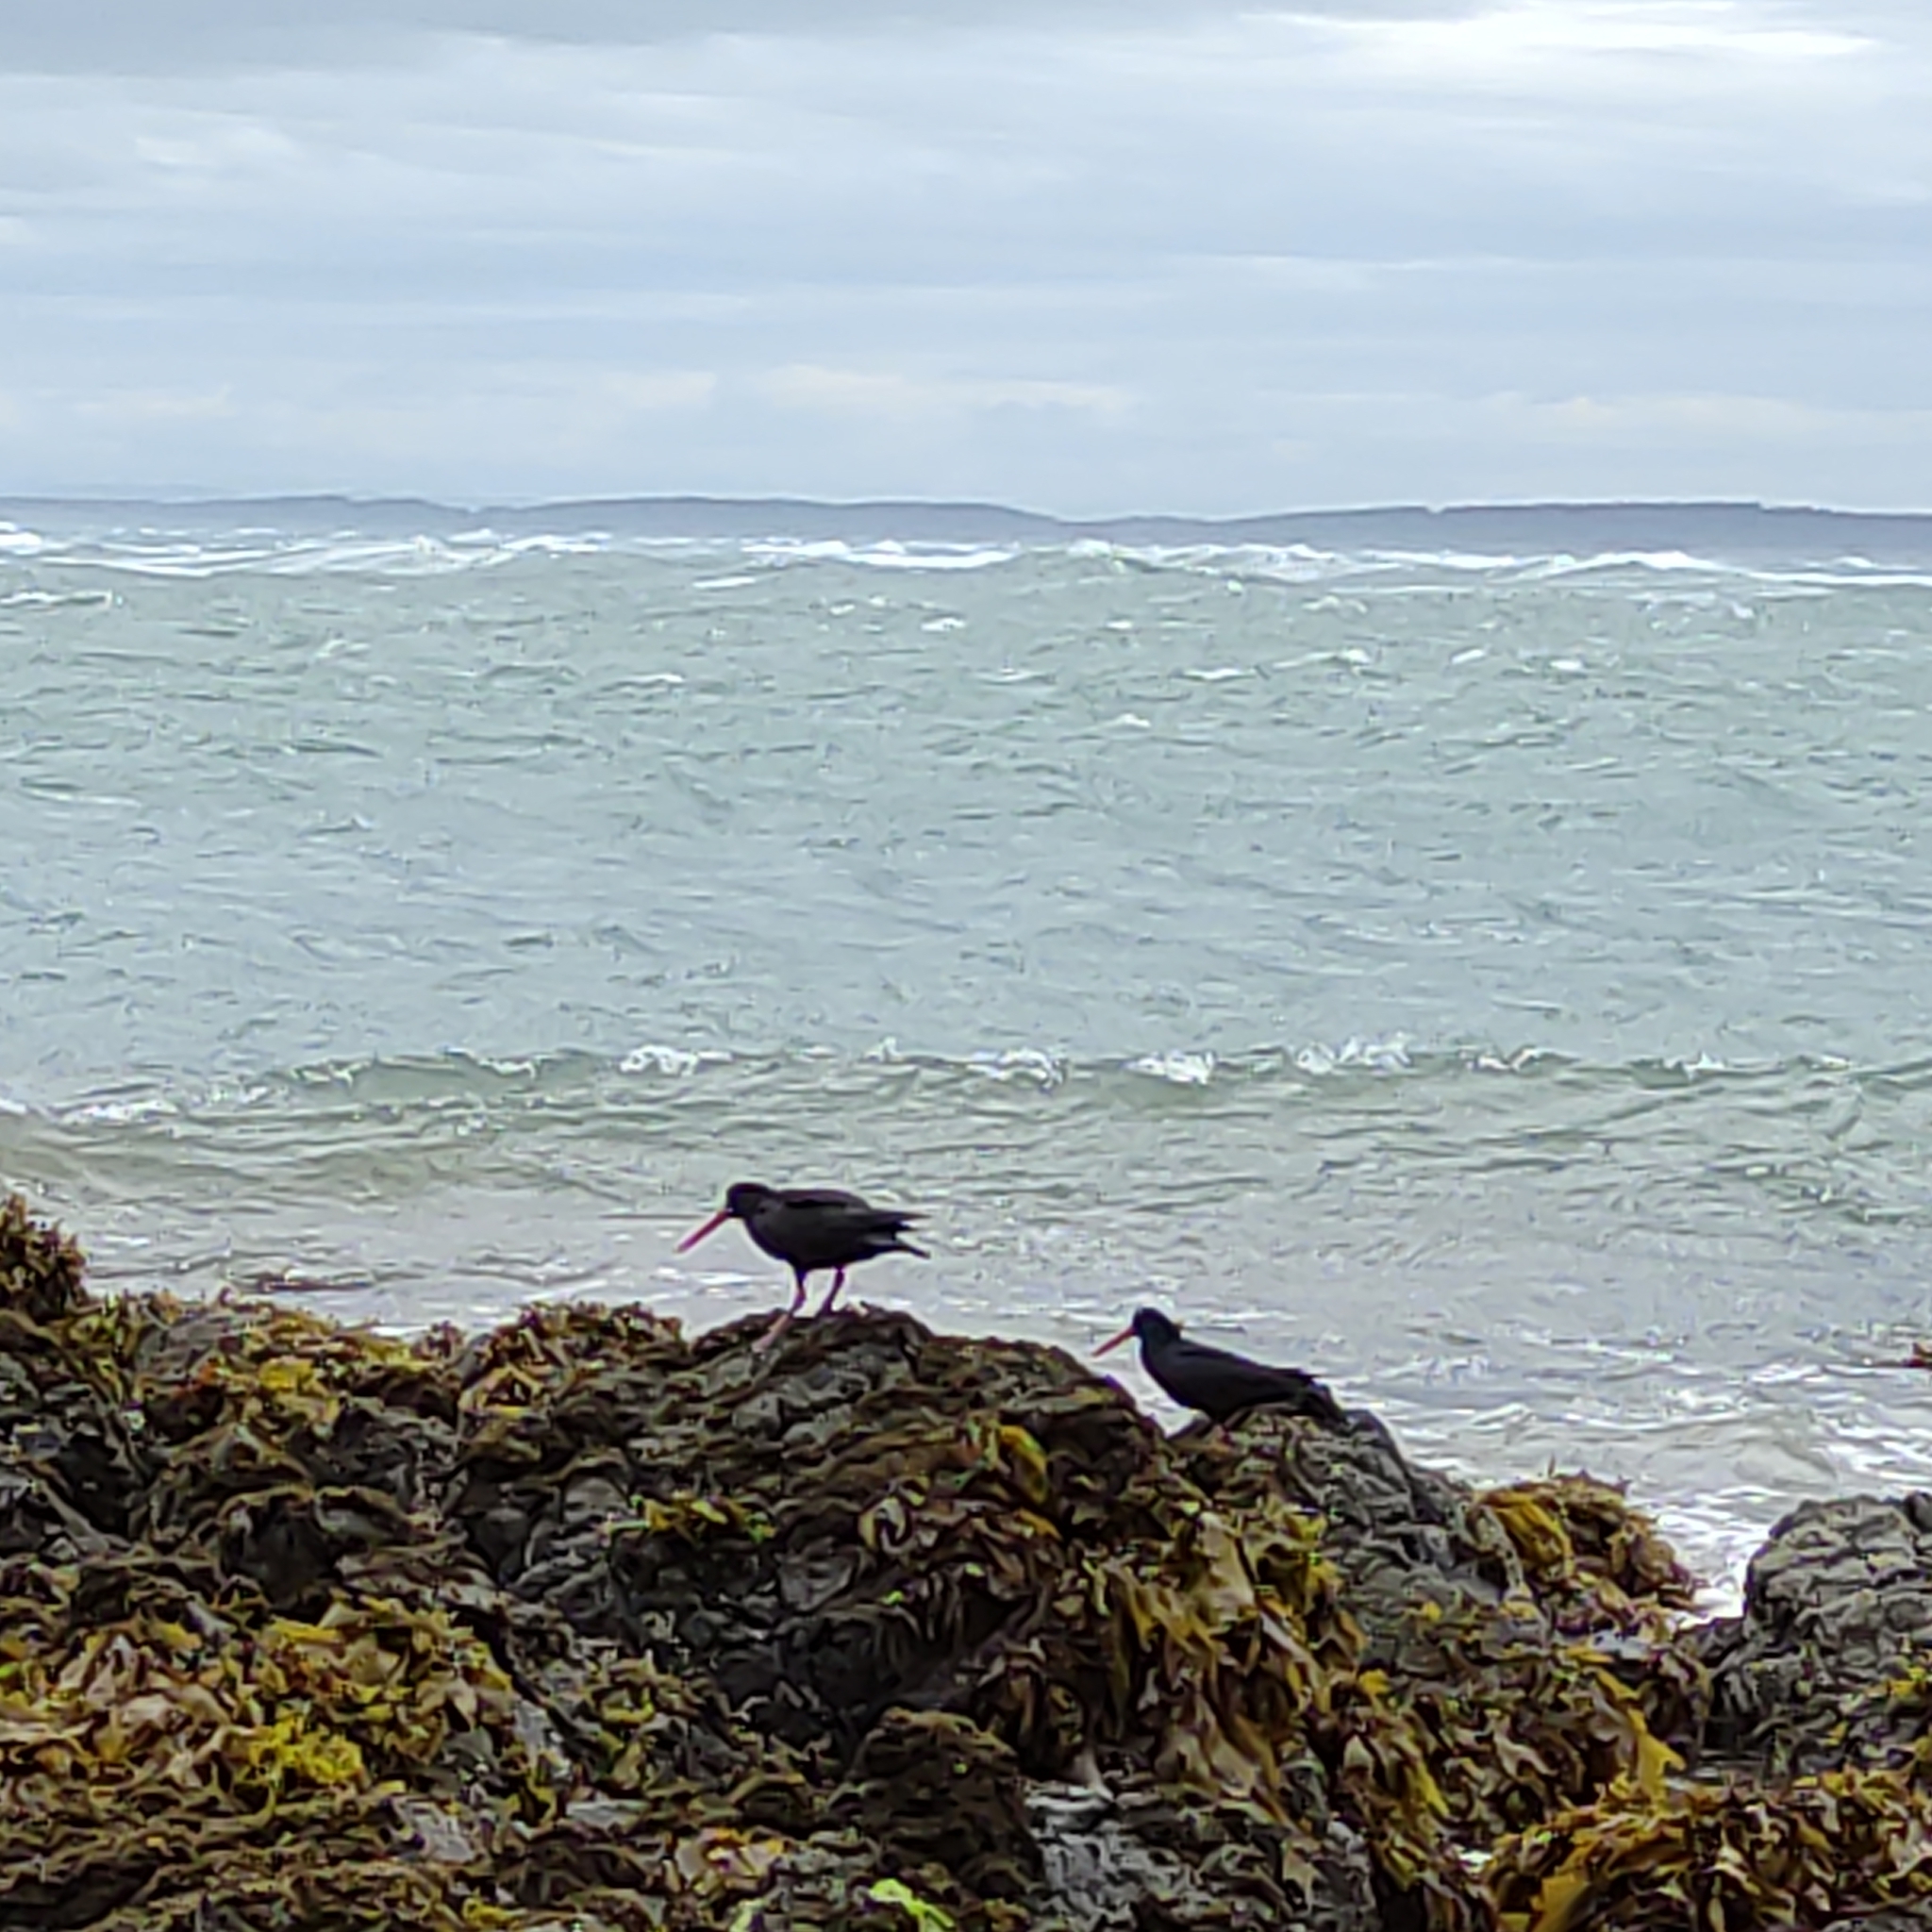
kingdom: Animalia
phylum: Chordata
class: Aves
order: Charadriiformes
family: Haematopodidae
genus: Haematopus
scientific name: Haematopus unicolor
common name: Variable oystercatcher
